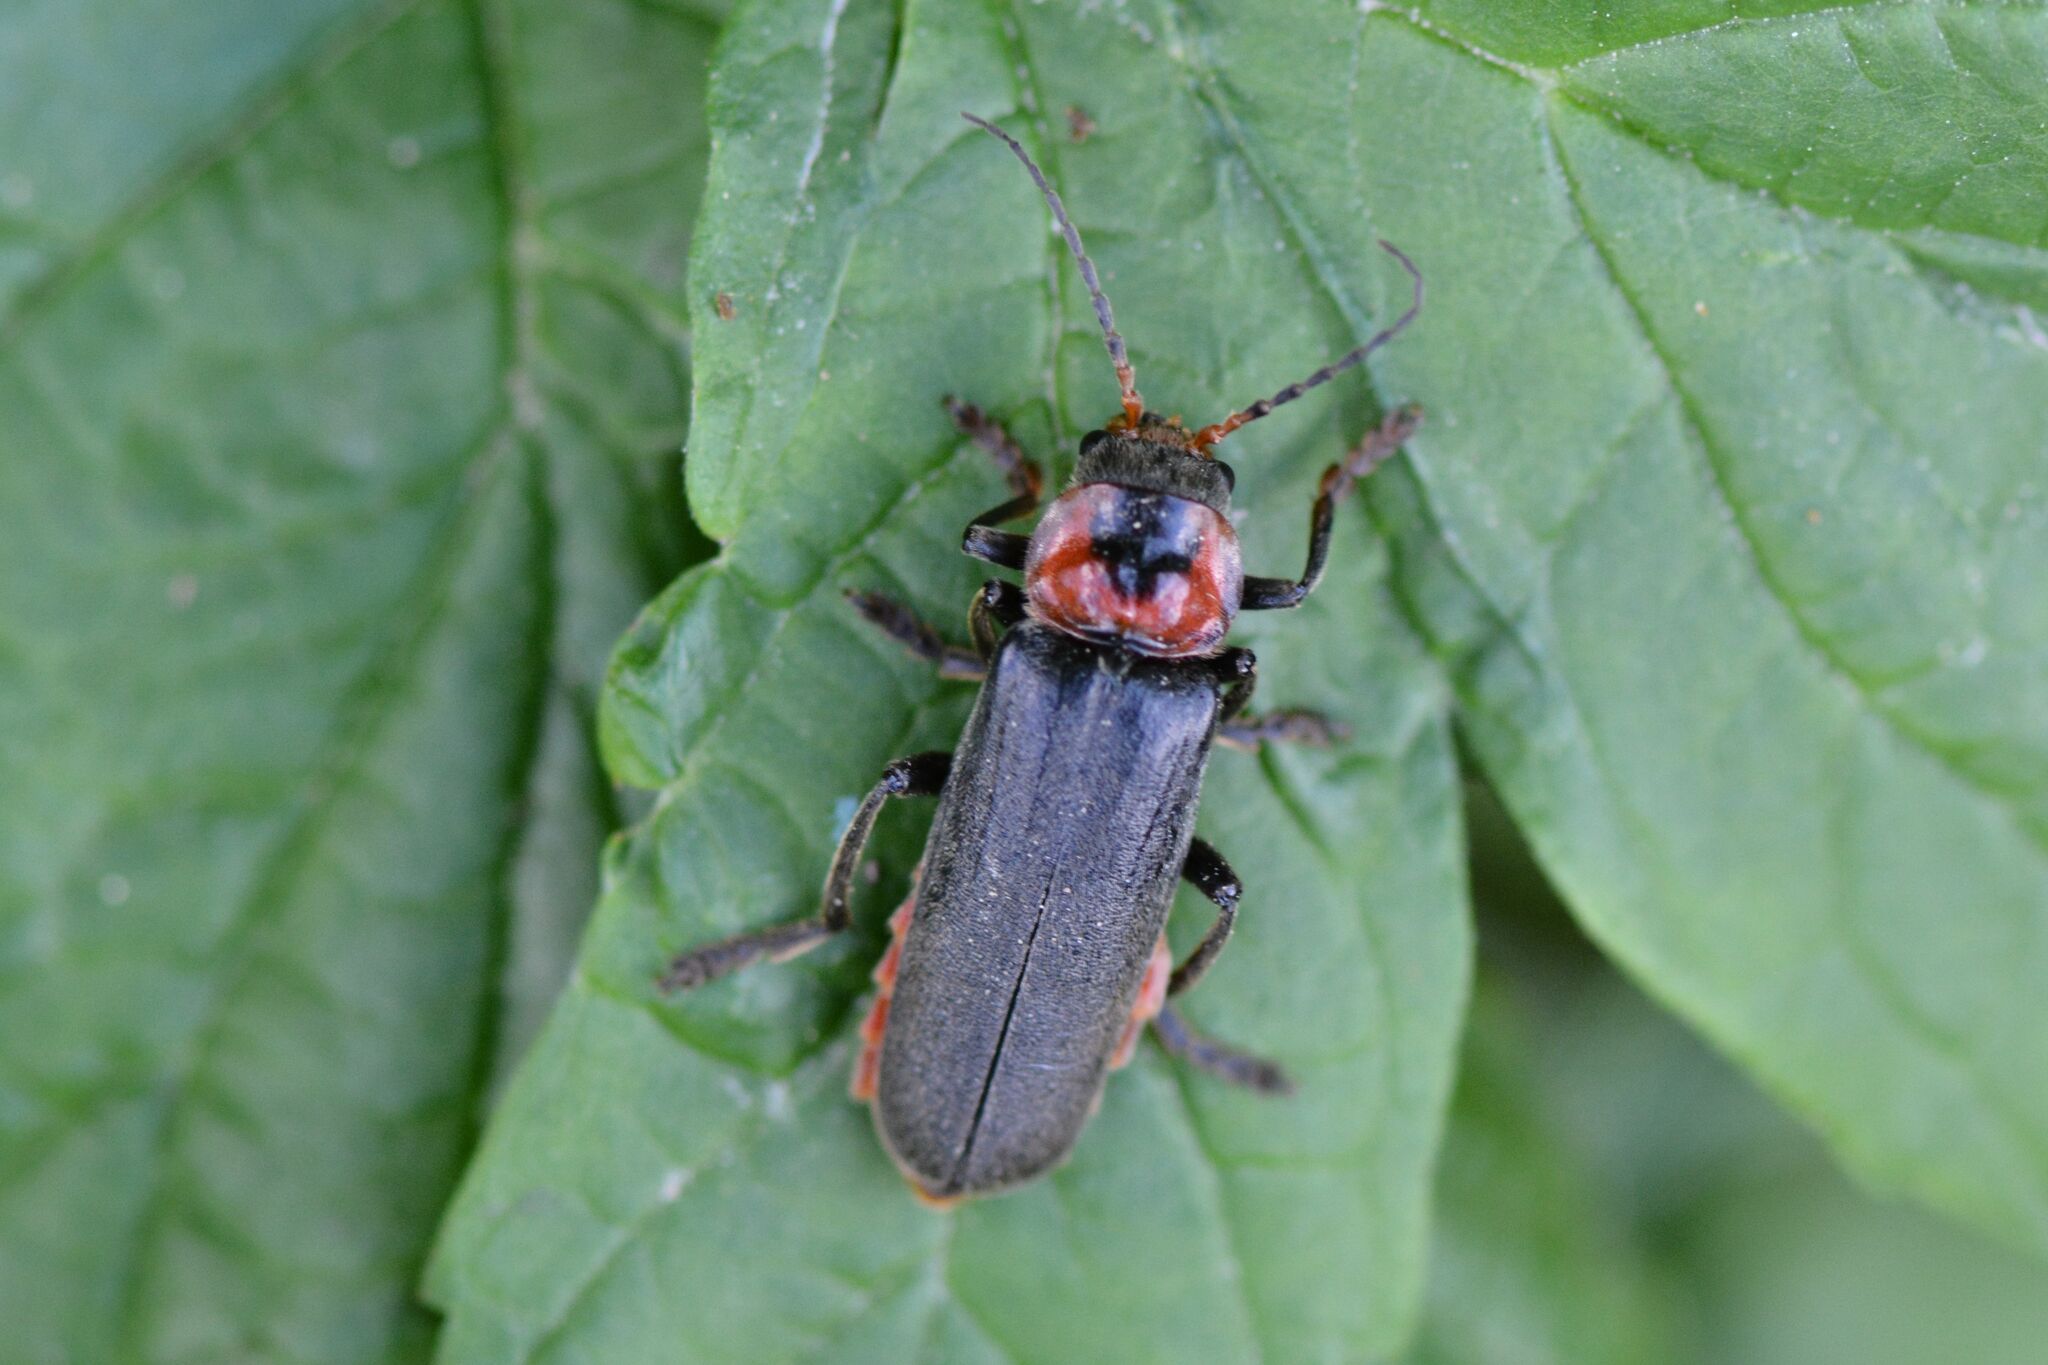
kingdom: Animalia
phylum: Arthropoda
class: Insecta
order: Coleoptera
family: Cantharidae
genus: Cantharis
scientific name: Cantharis fusca
